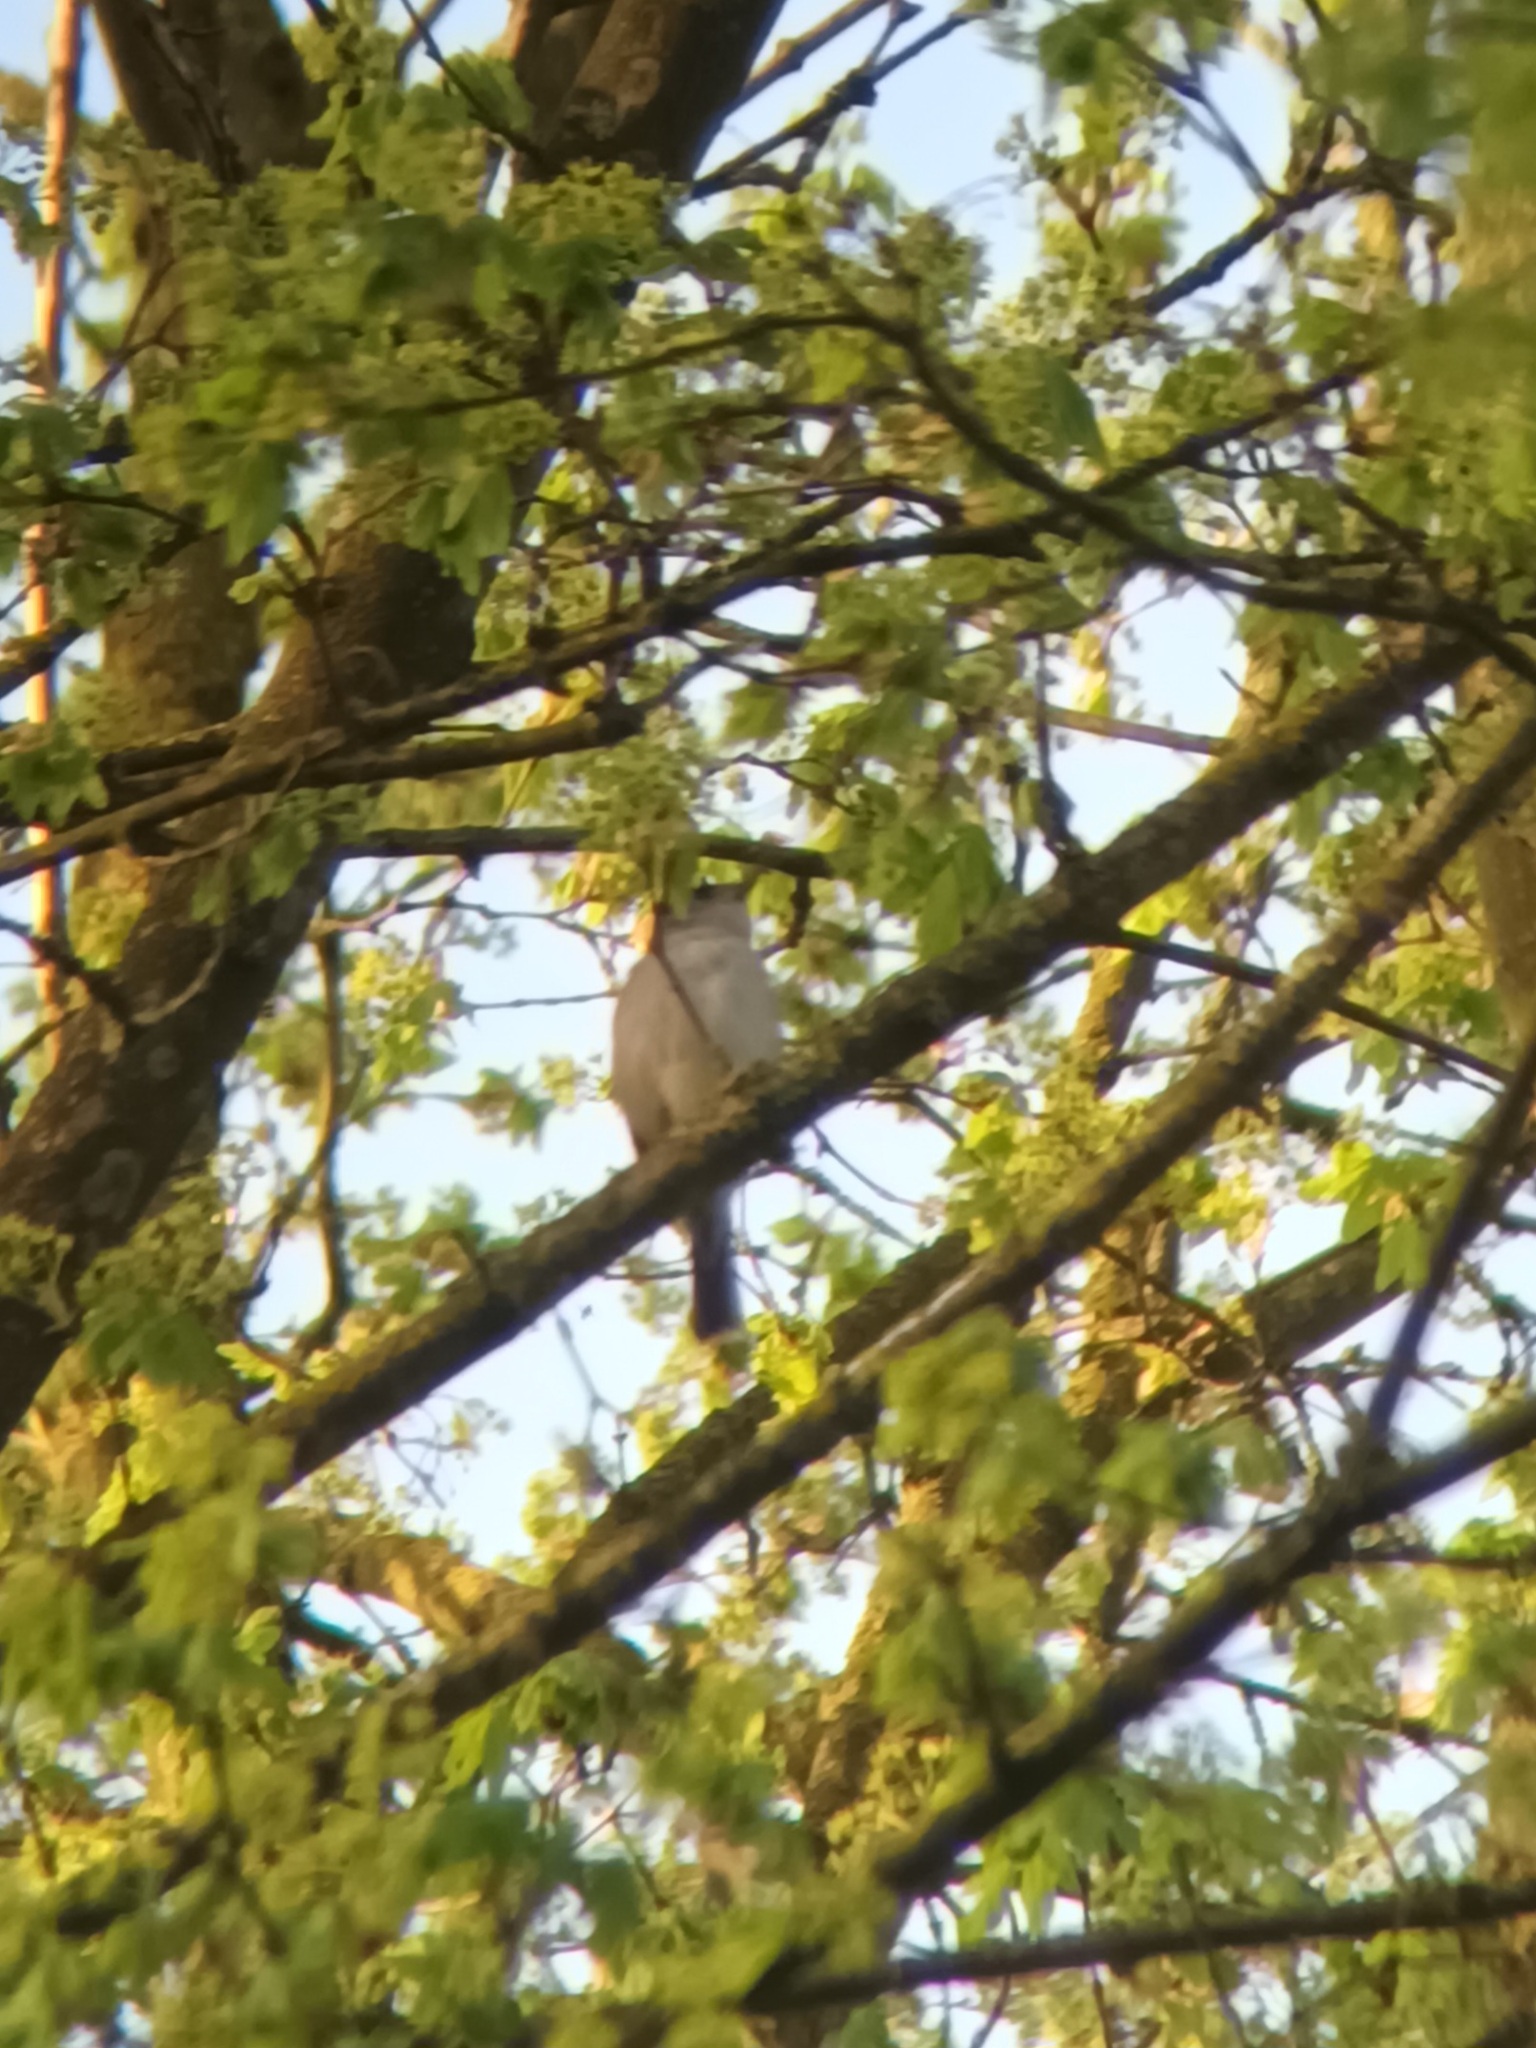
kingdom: Animalia
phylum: Chordata
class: Aves
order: Passeriformes
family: Sylviidae
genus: Sylvia
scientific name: Sylvia atricapilla
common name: Eurasian blackcap
